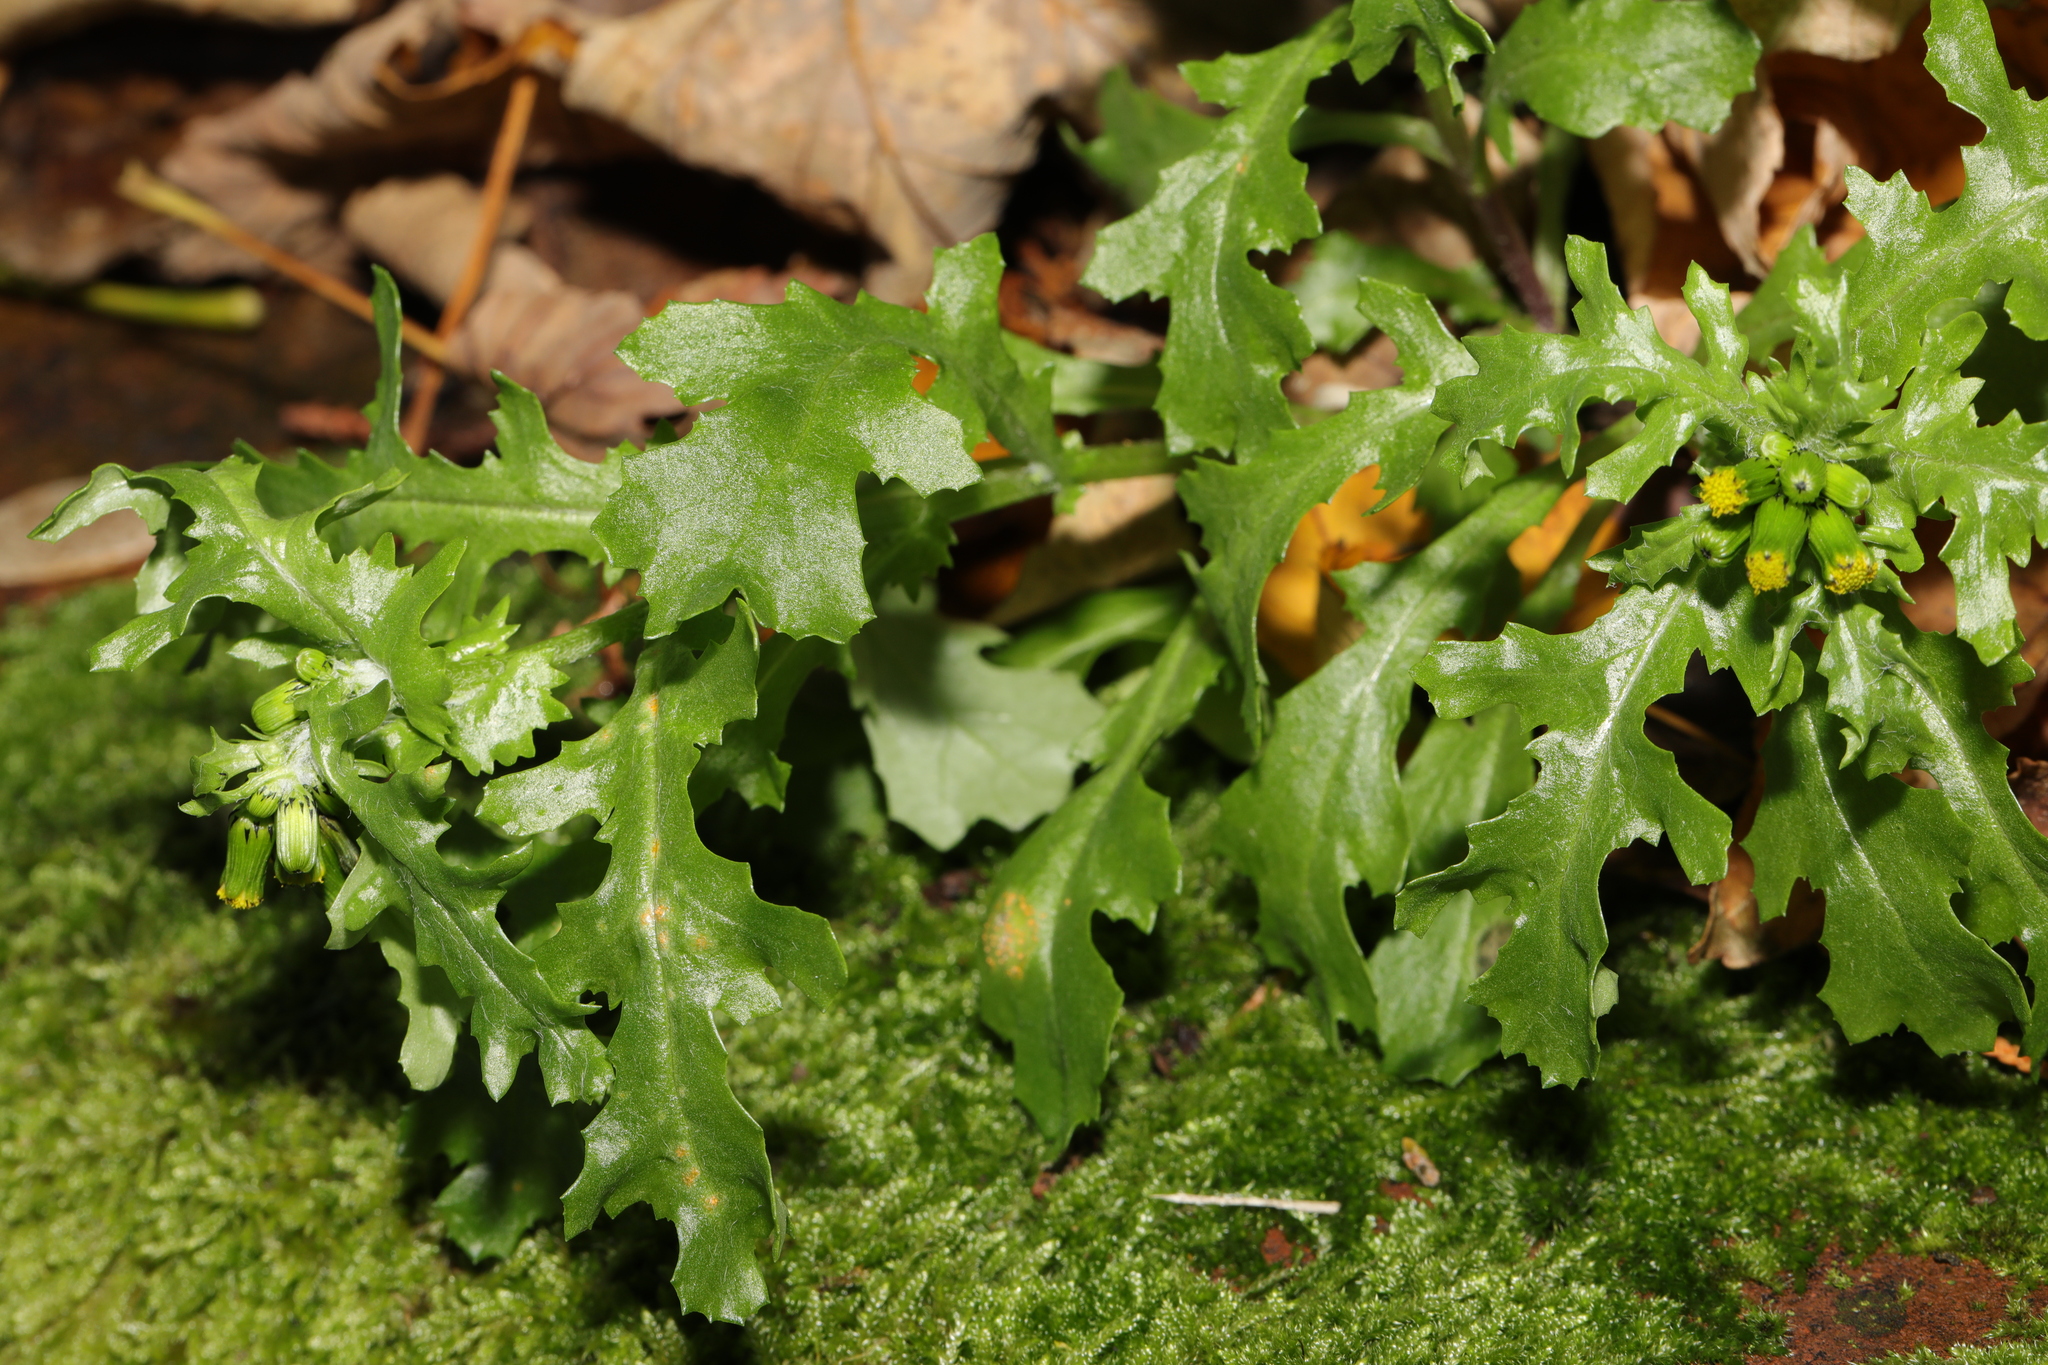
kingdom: Plantae
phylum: Tracheophyta
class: Magnoliopsida
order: Asterales
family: Asteraceae
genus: Senecio
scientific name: Senecio vulgaris
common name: Old-man-in-the-spring
